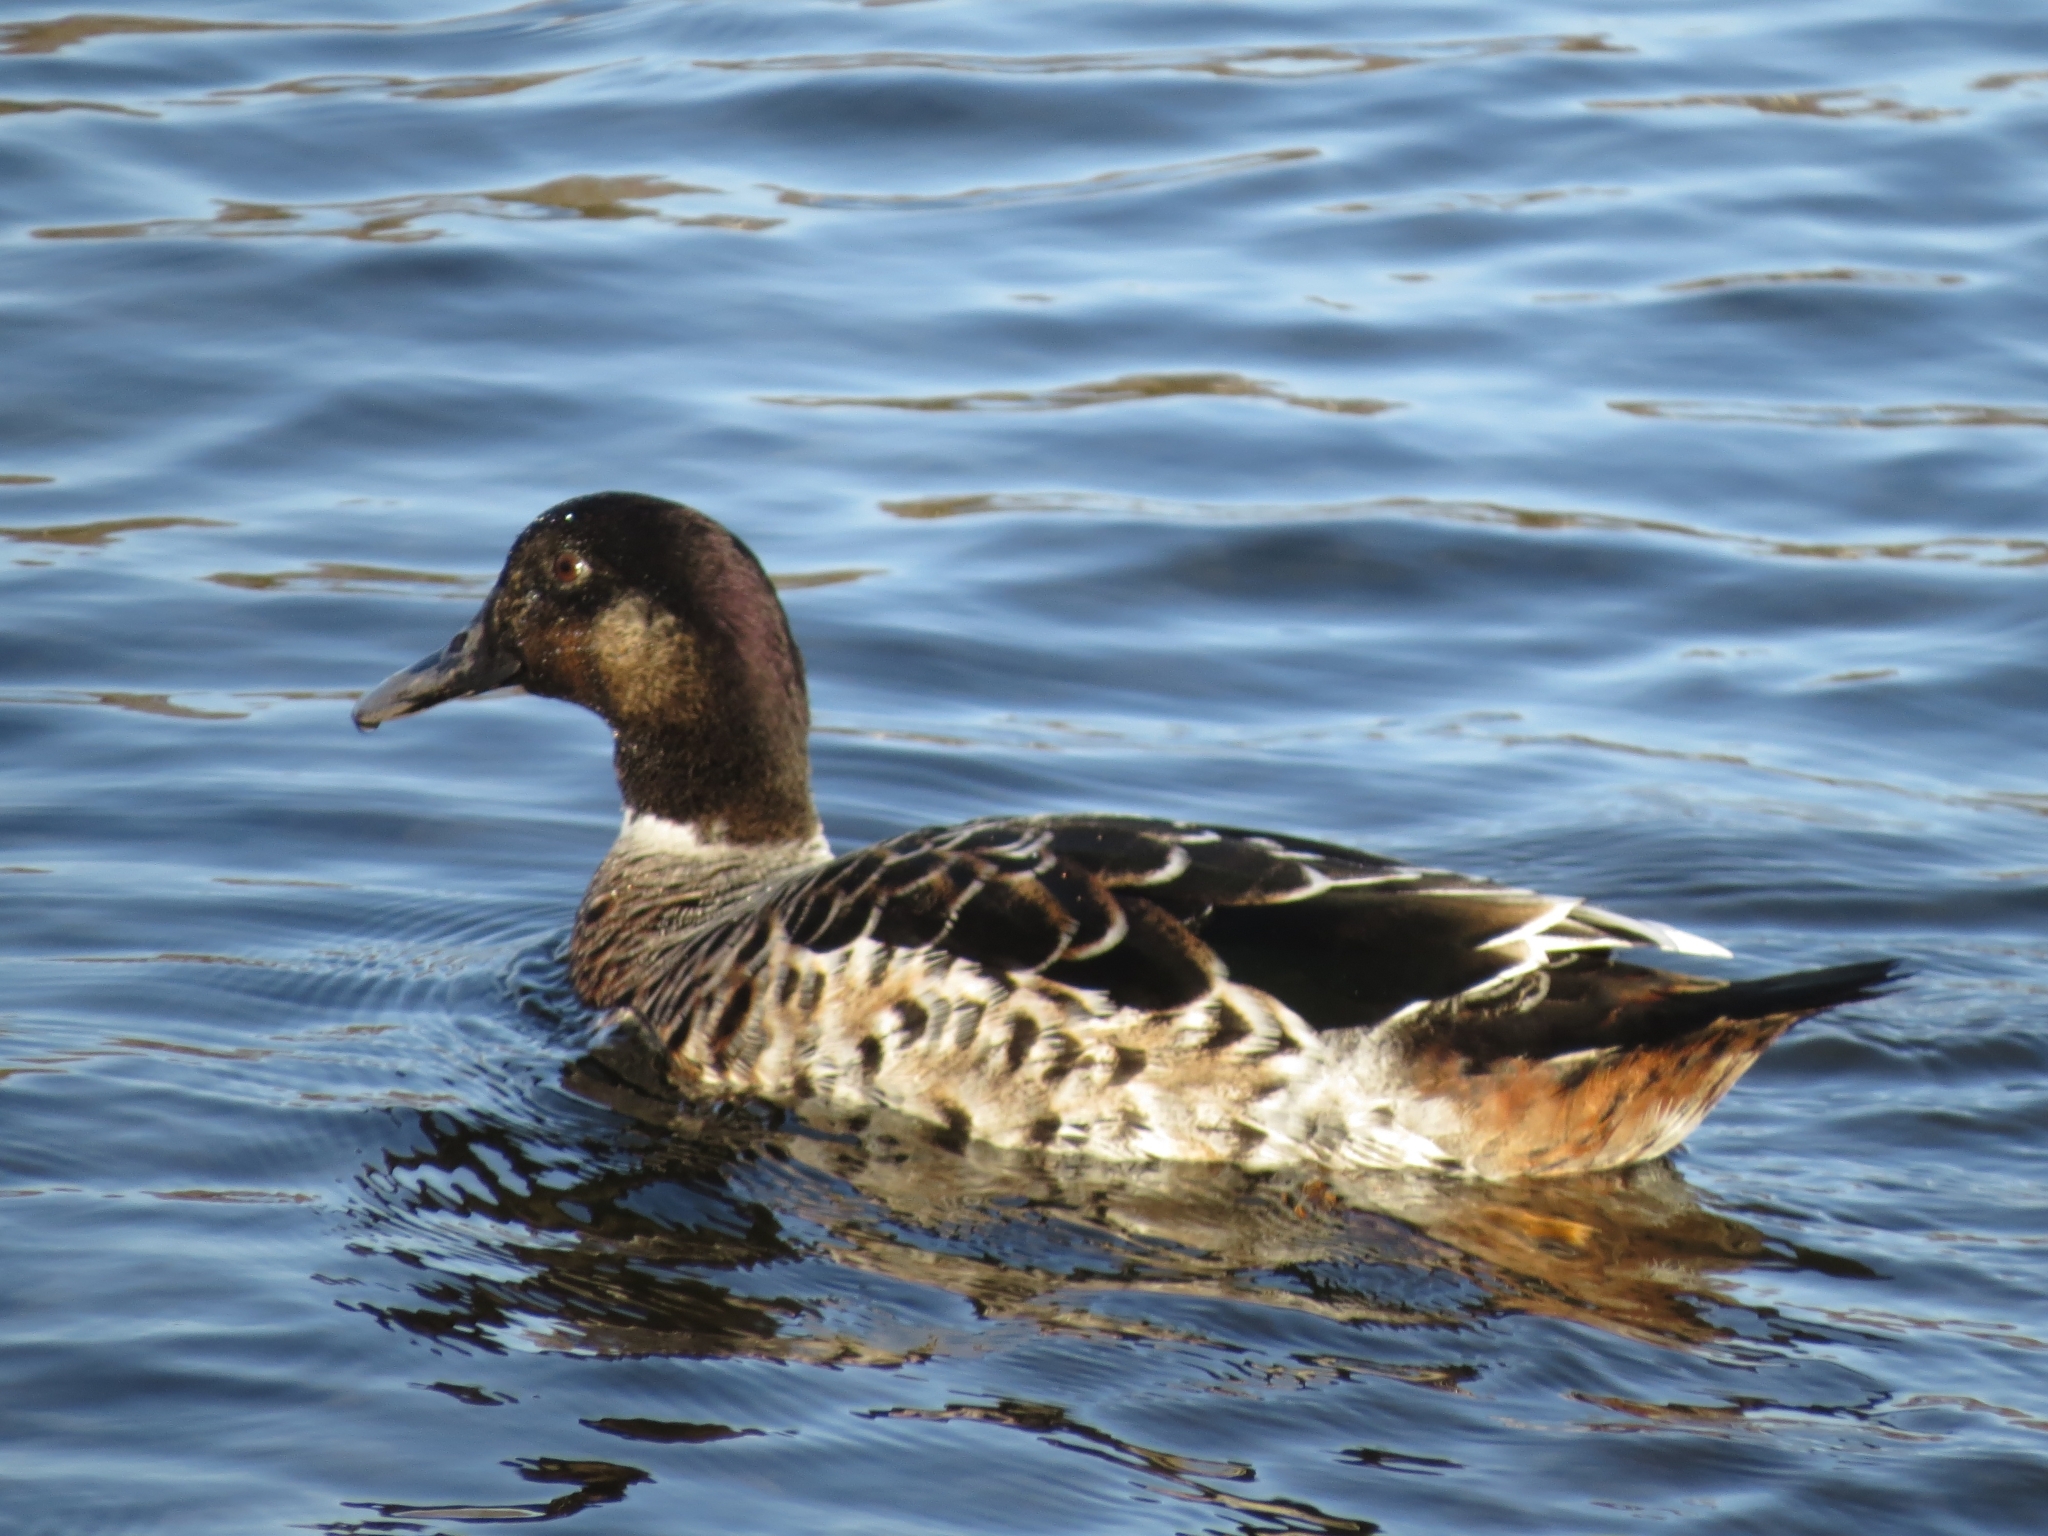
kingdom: Animalia
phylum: Chordata
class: Aves
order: Anseriformes
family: Anatidae
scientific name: Anatidae
